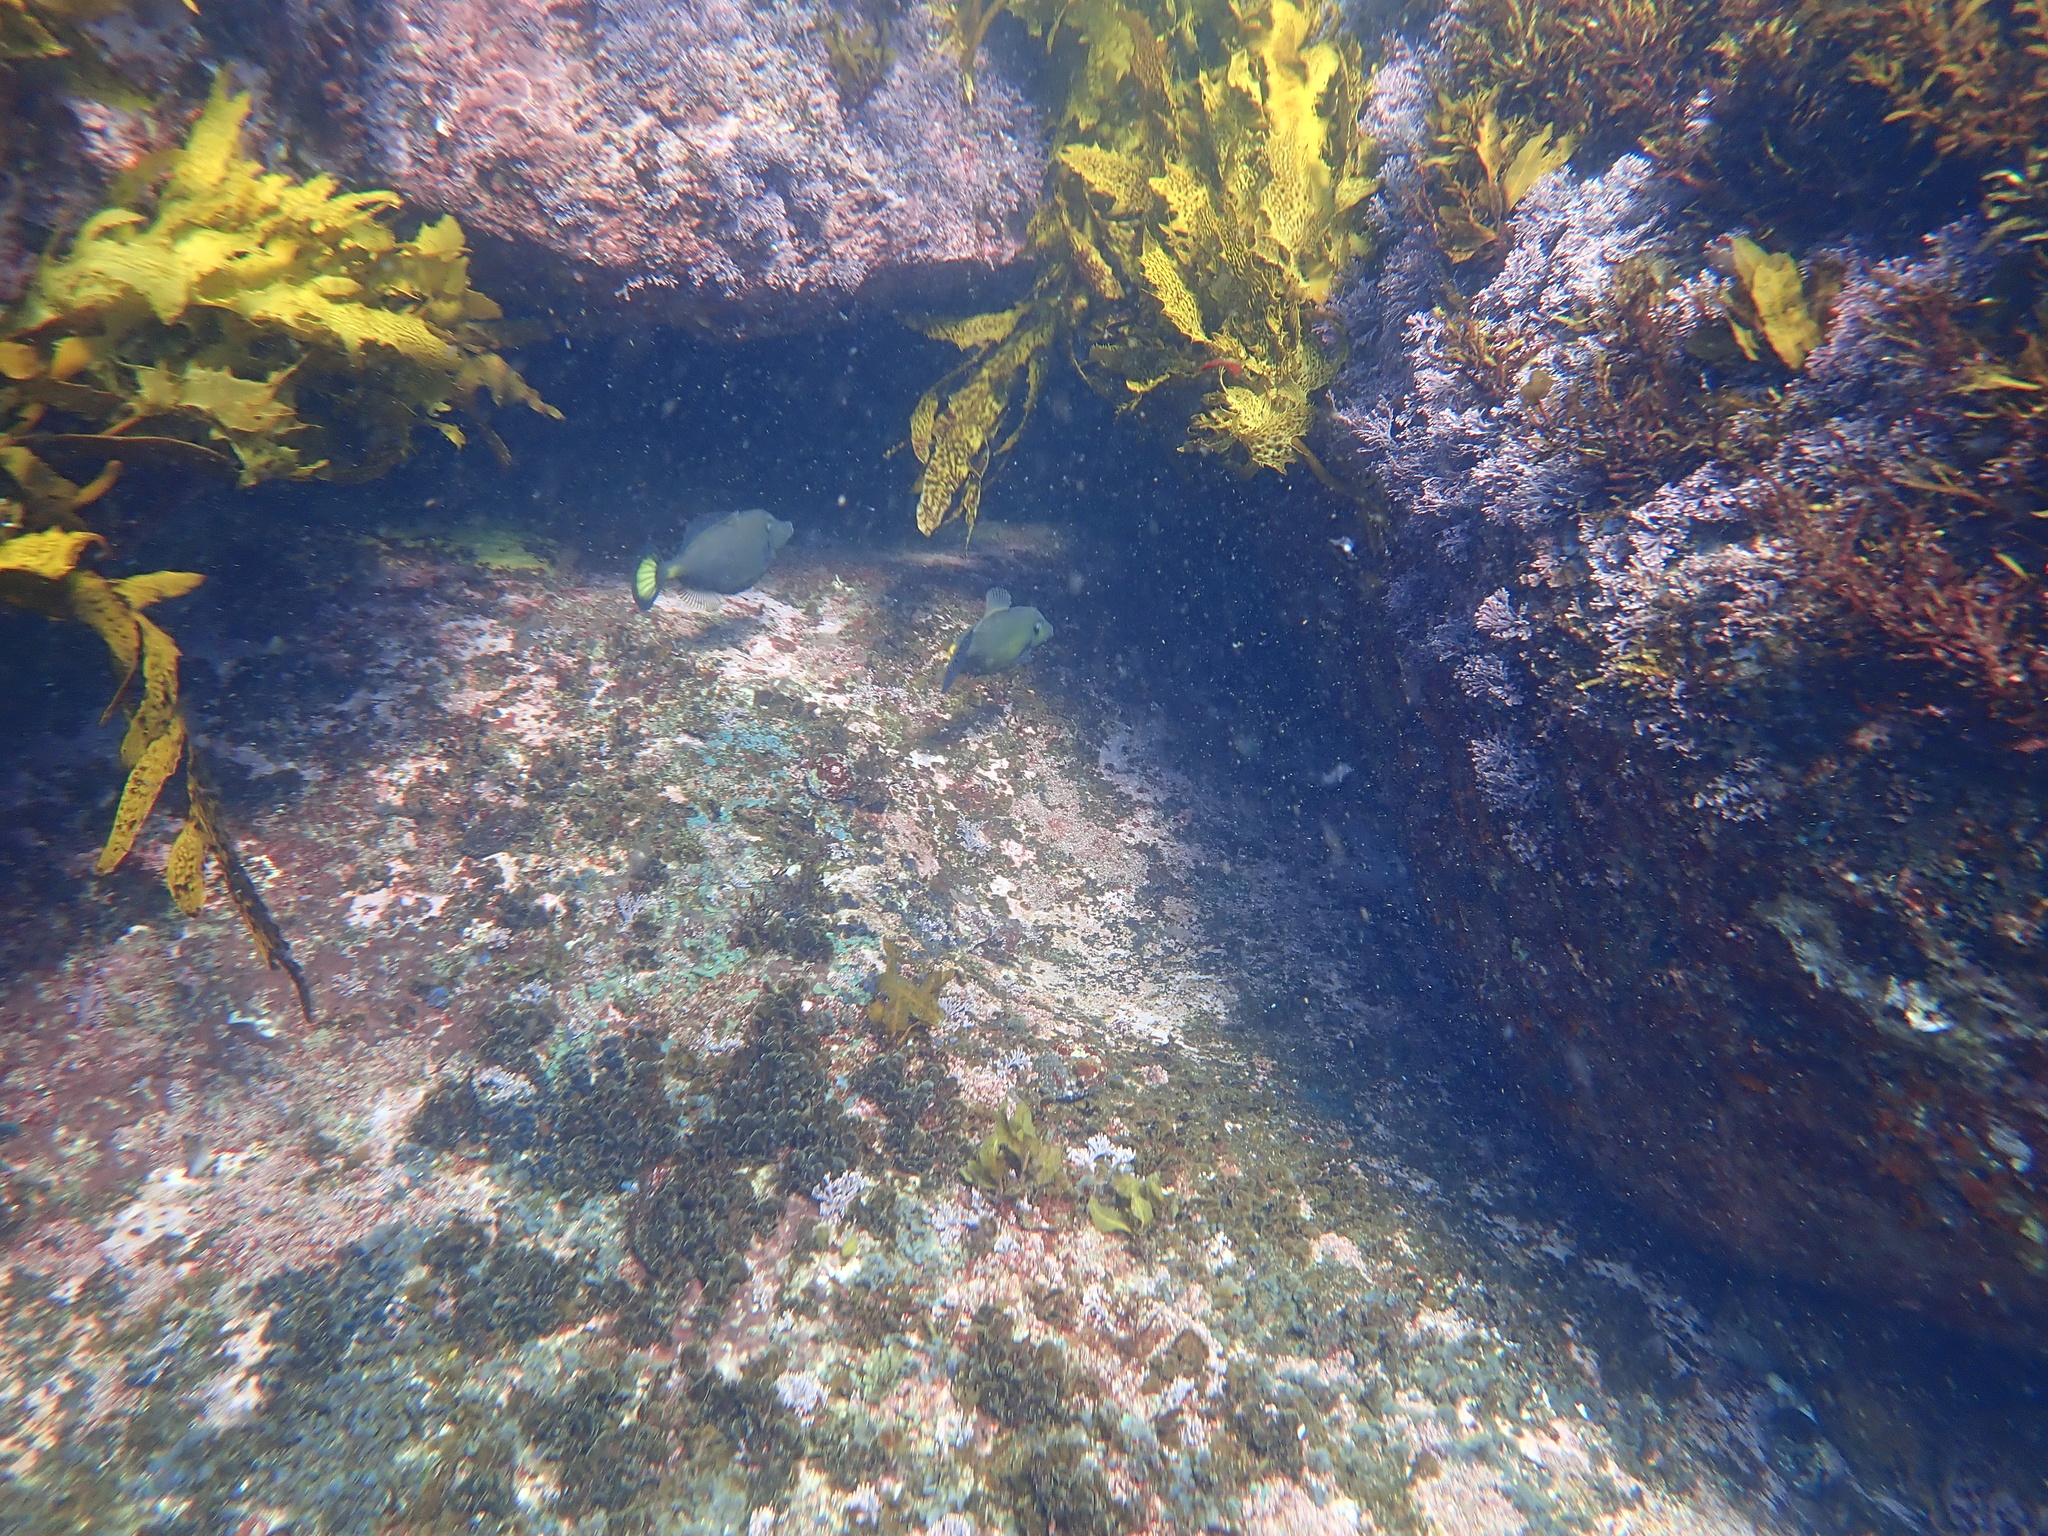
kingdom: Animalia
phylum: Chordata
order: Tetraodontiformes
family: Monacanthidae
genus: Meuschenia
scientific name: Meuschenia flavolineata
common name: Yellowstriped leatherjacket
